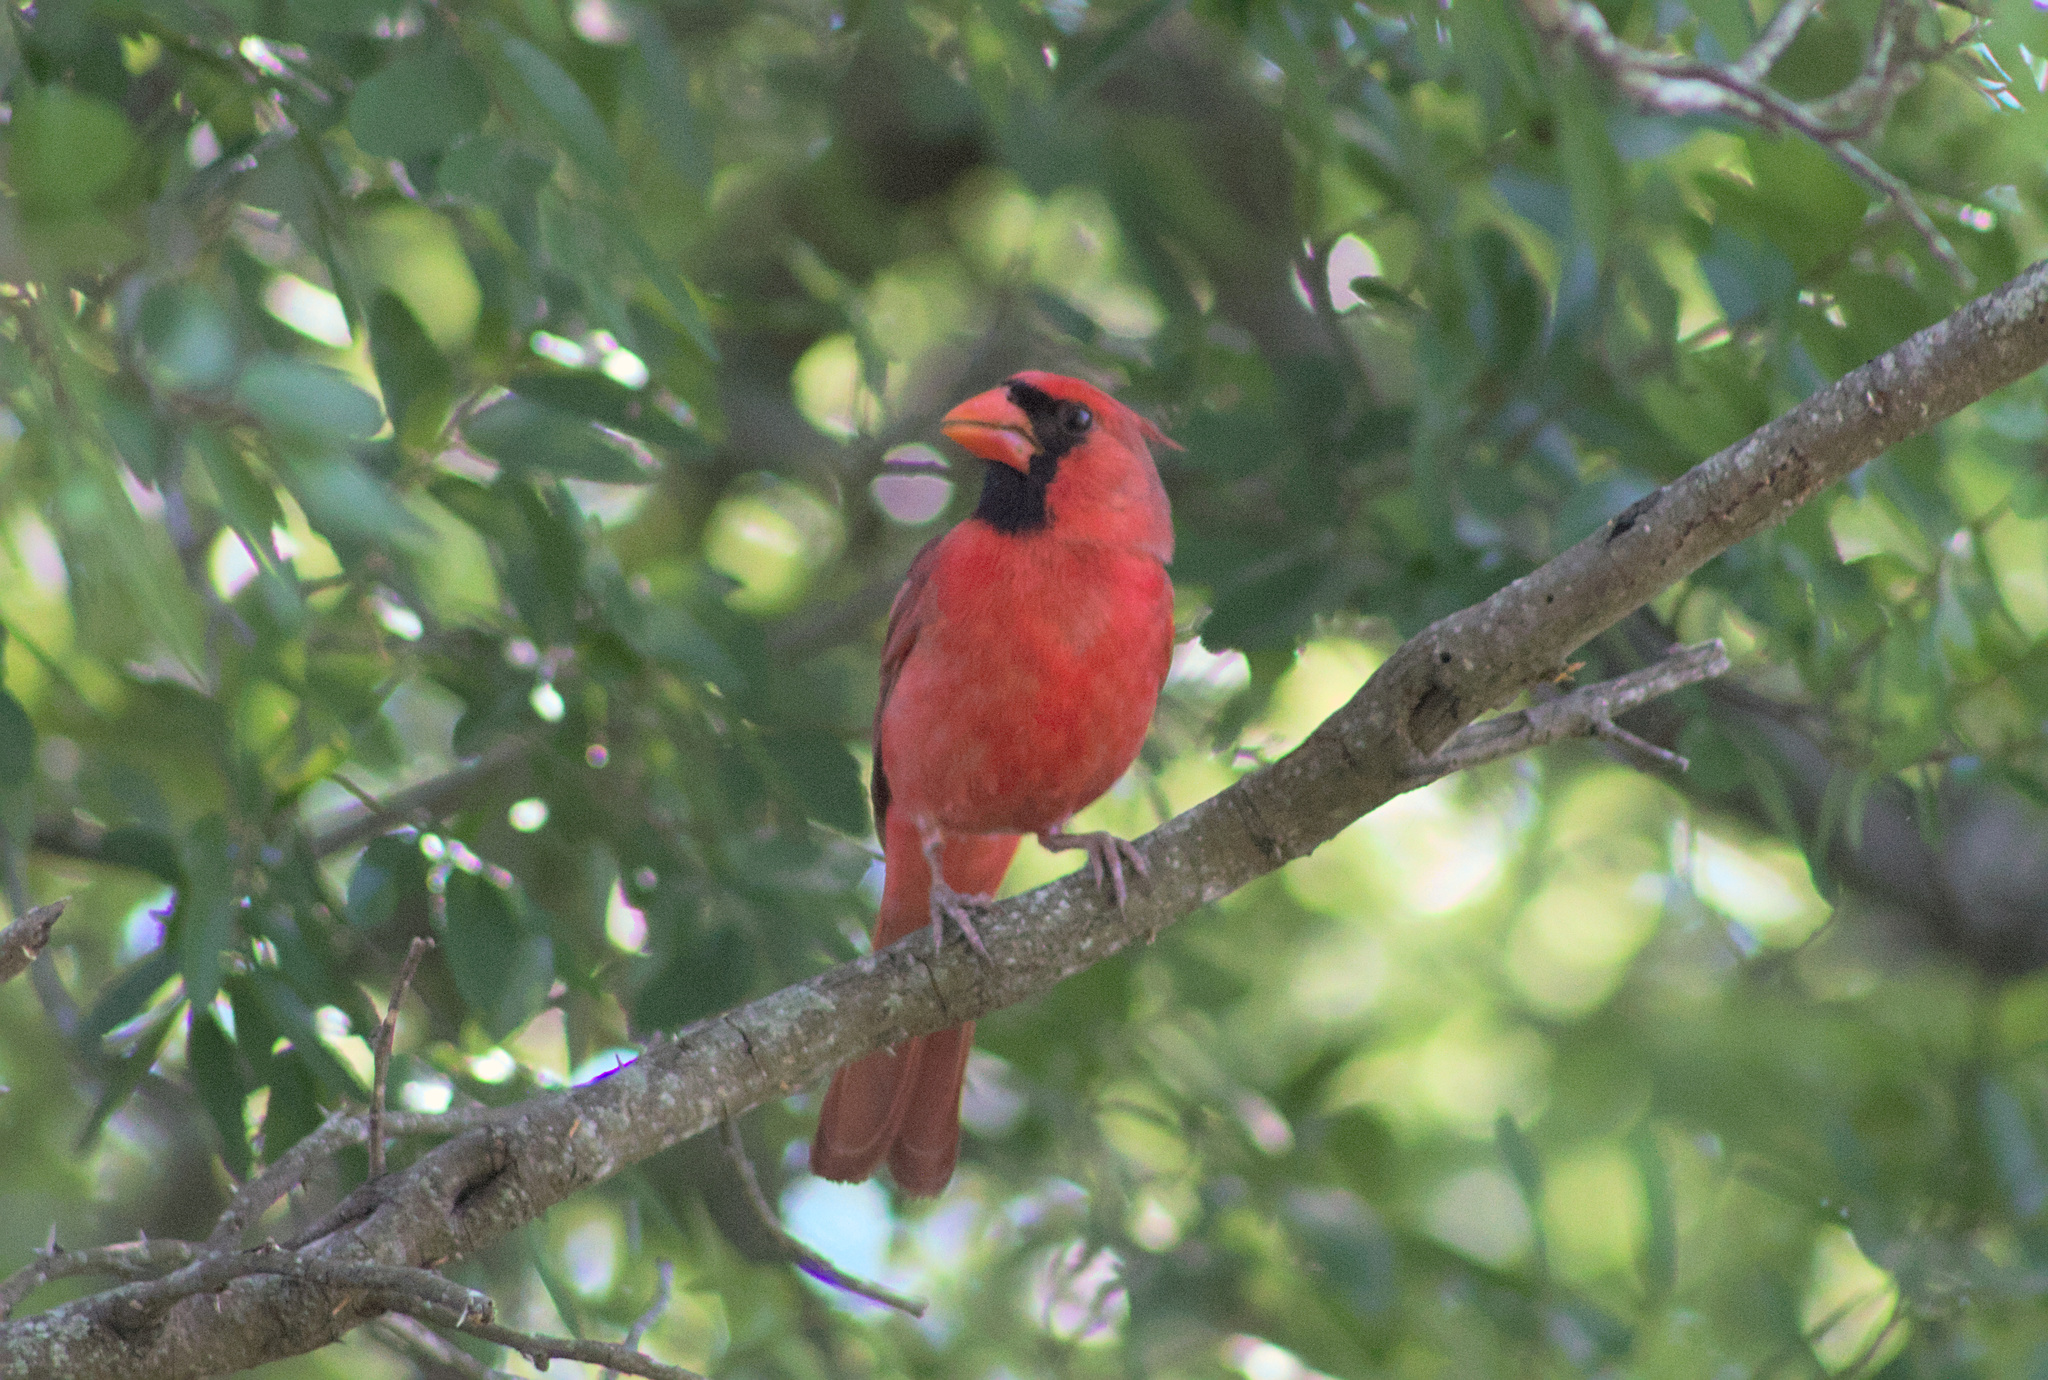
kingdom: Animalia
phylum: Chordata
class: Aves
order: Passeriformes
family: Cardinalidae
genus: Cardinalis
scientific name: Cardinalis cardinalis
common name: Northern cardinal
